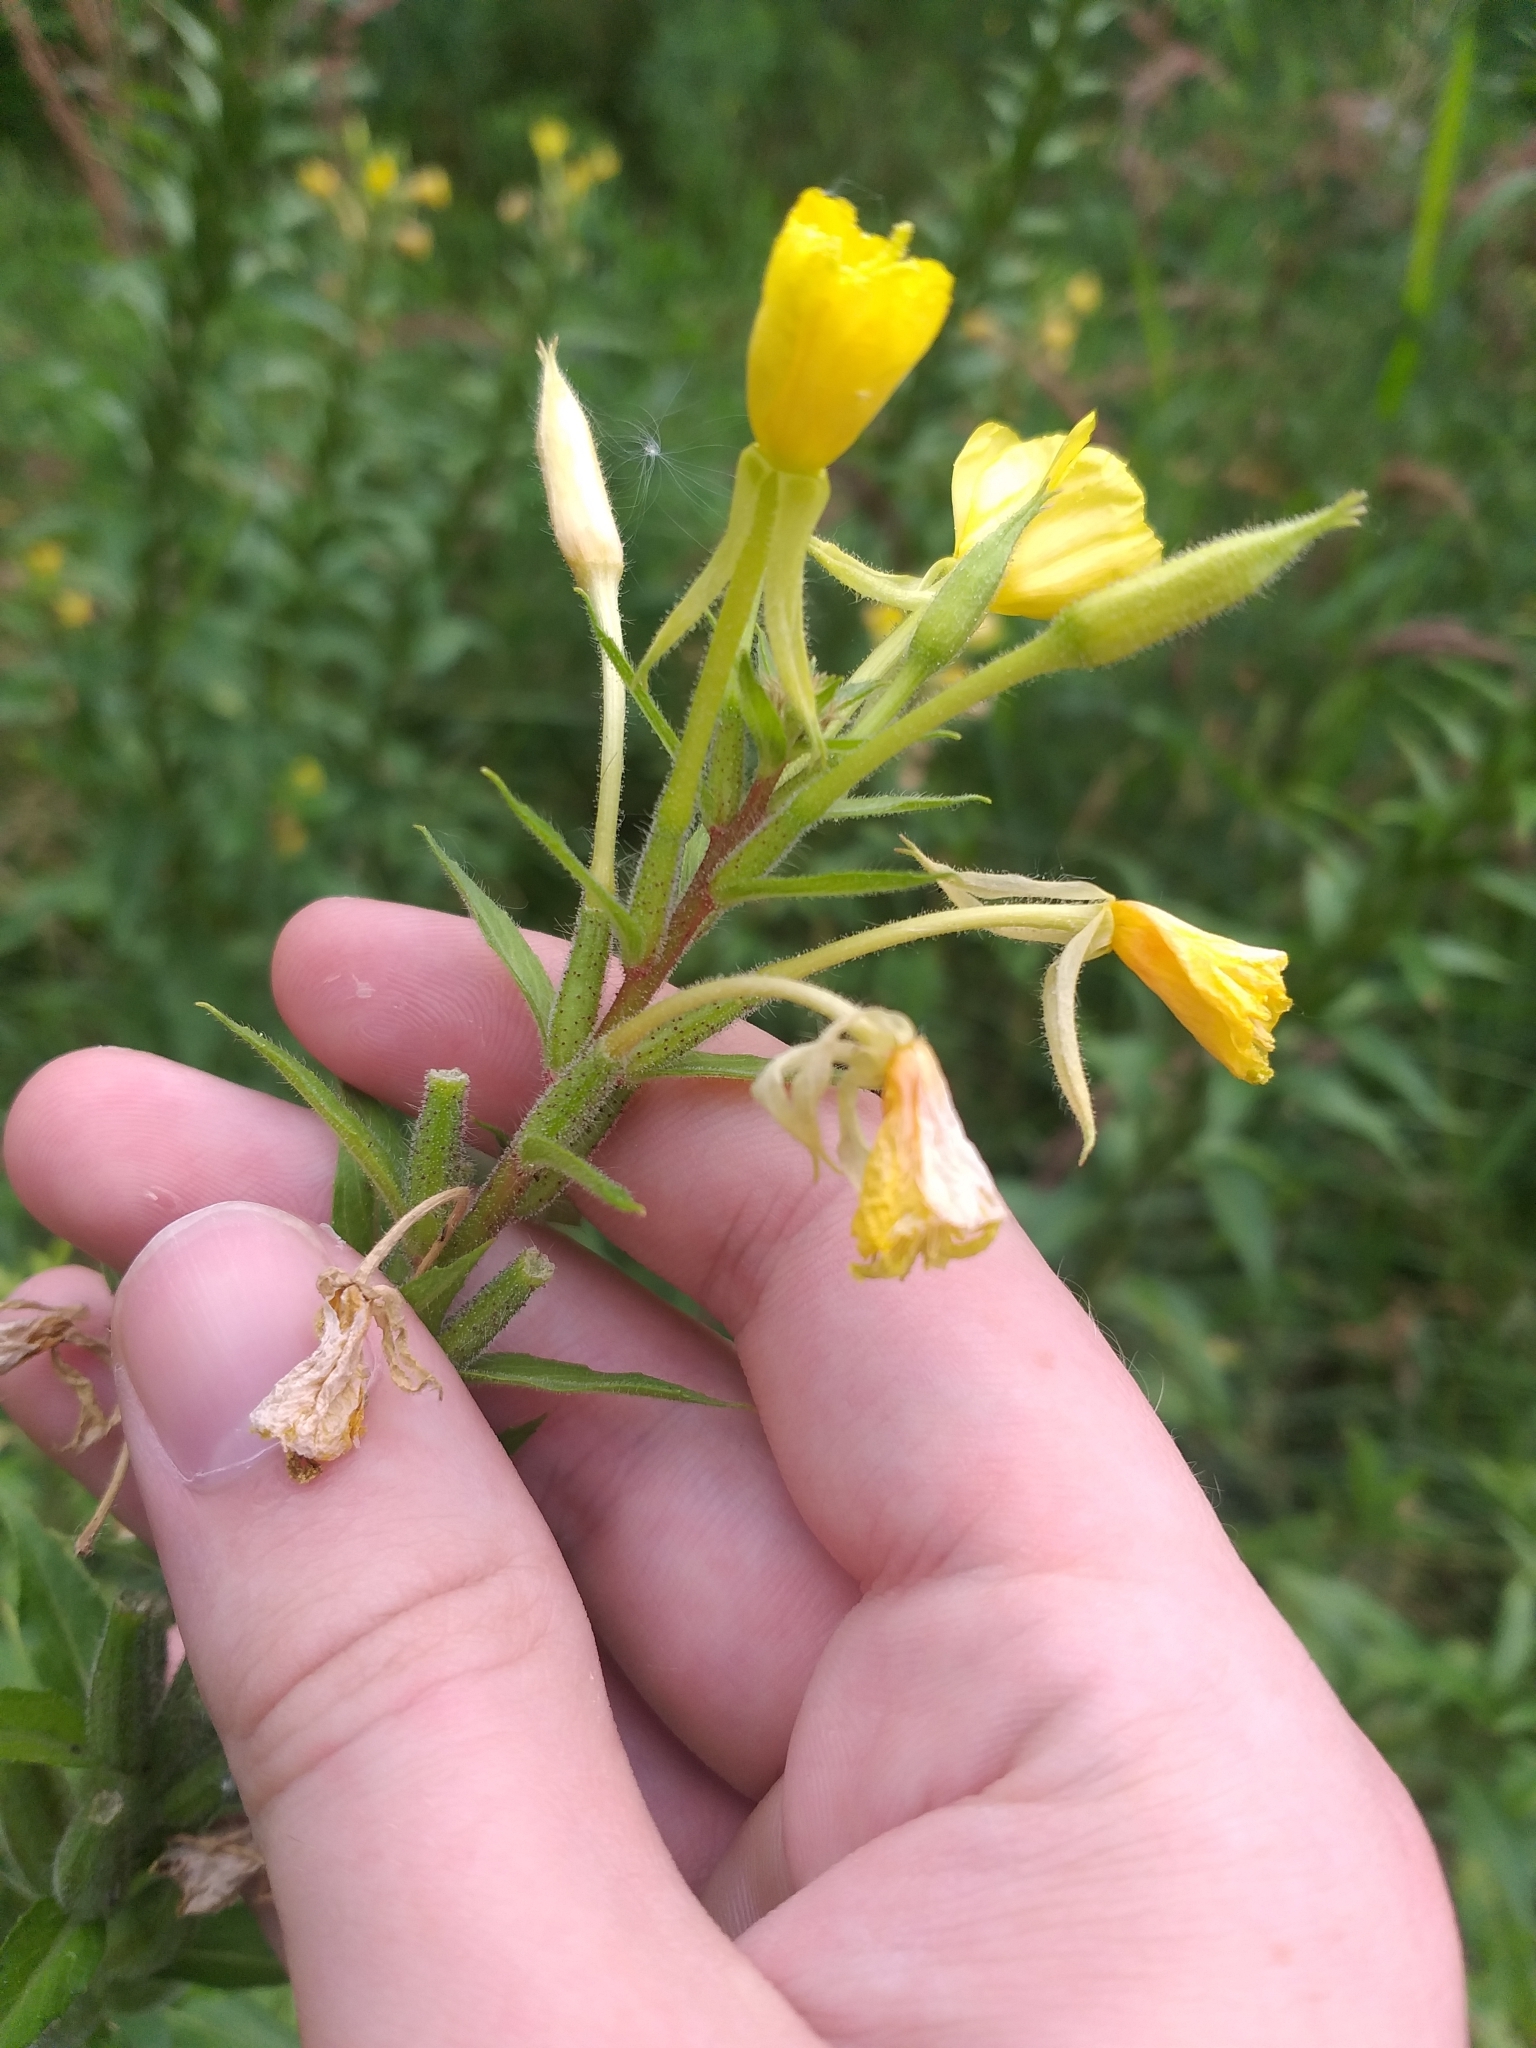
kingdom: Plantae
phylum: Tracheophyta
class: Magnoliopsida
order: Myrtales
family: Onagraceae
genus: Oenothera
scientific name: Oenothera rubricaulis
